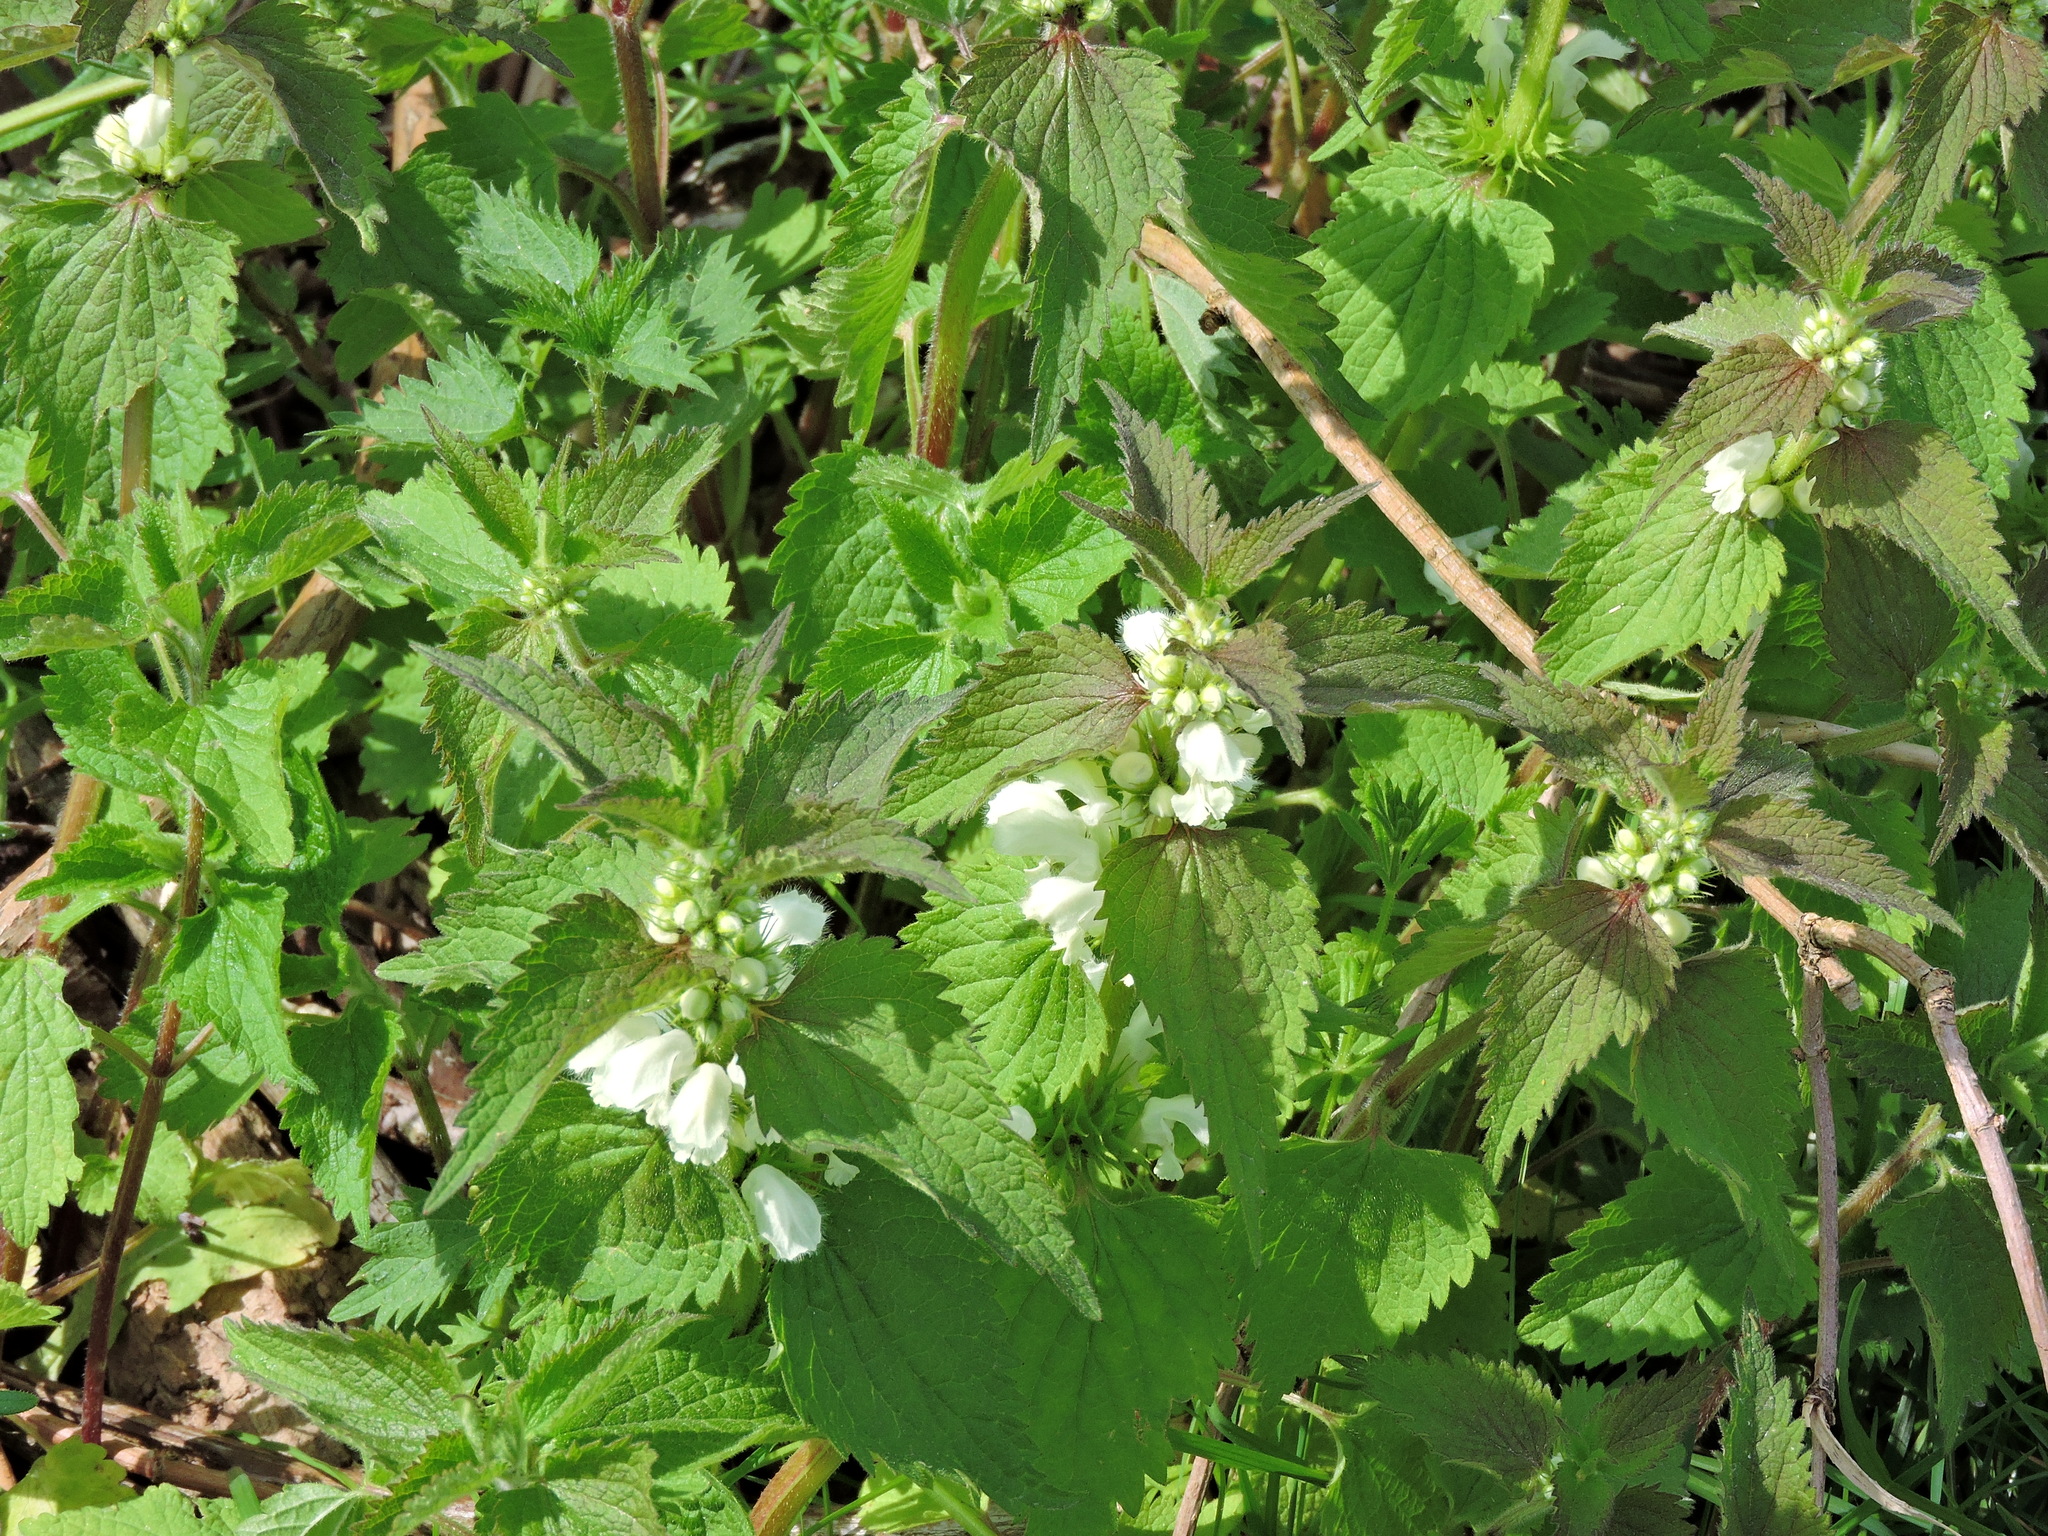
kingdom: Plantae
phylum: Tracheophyta
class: Magnoliopsida
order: Lamiales
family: Lamiaceae
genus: Lamium
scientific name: Lamium album
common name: White dead-nettle
